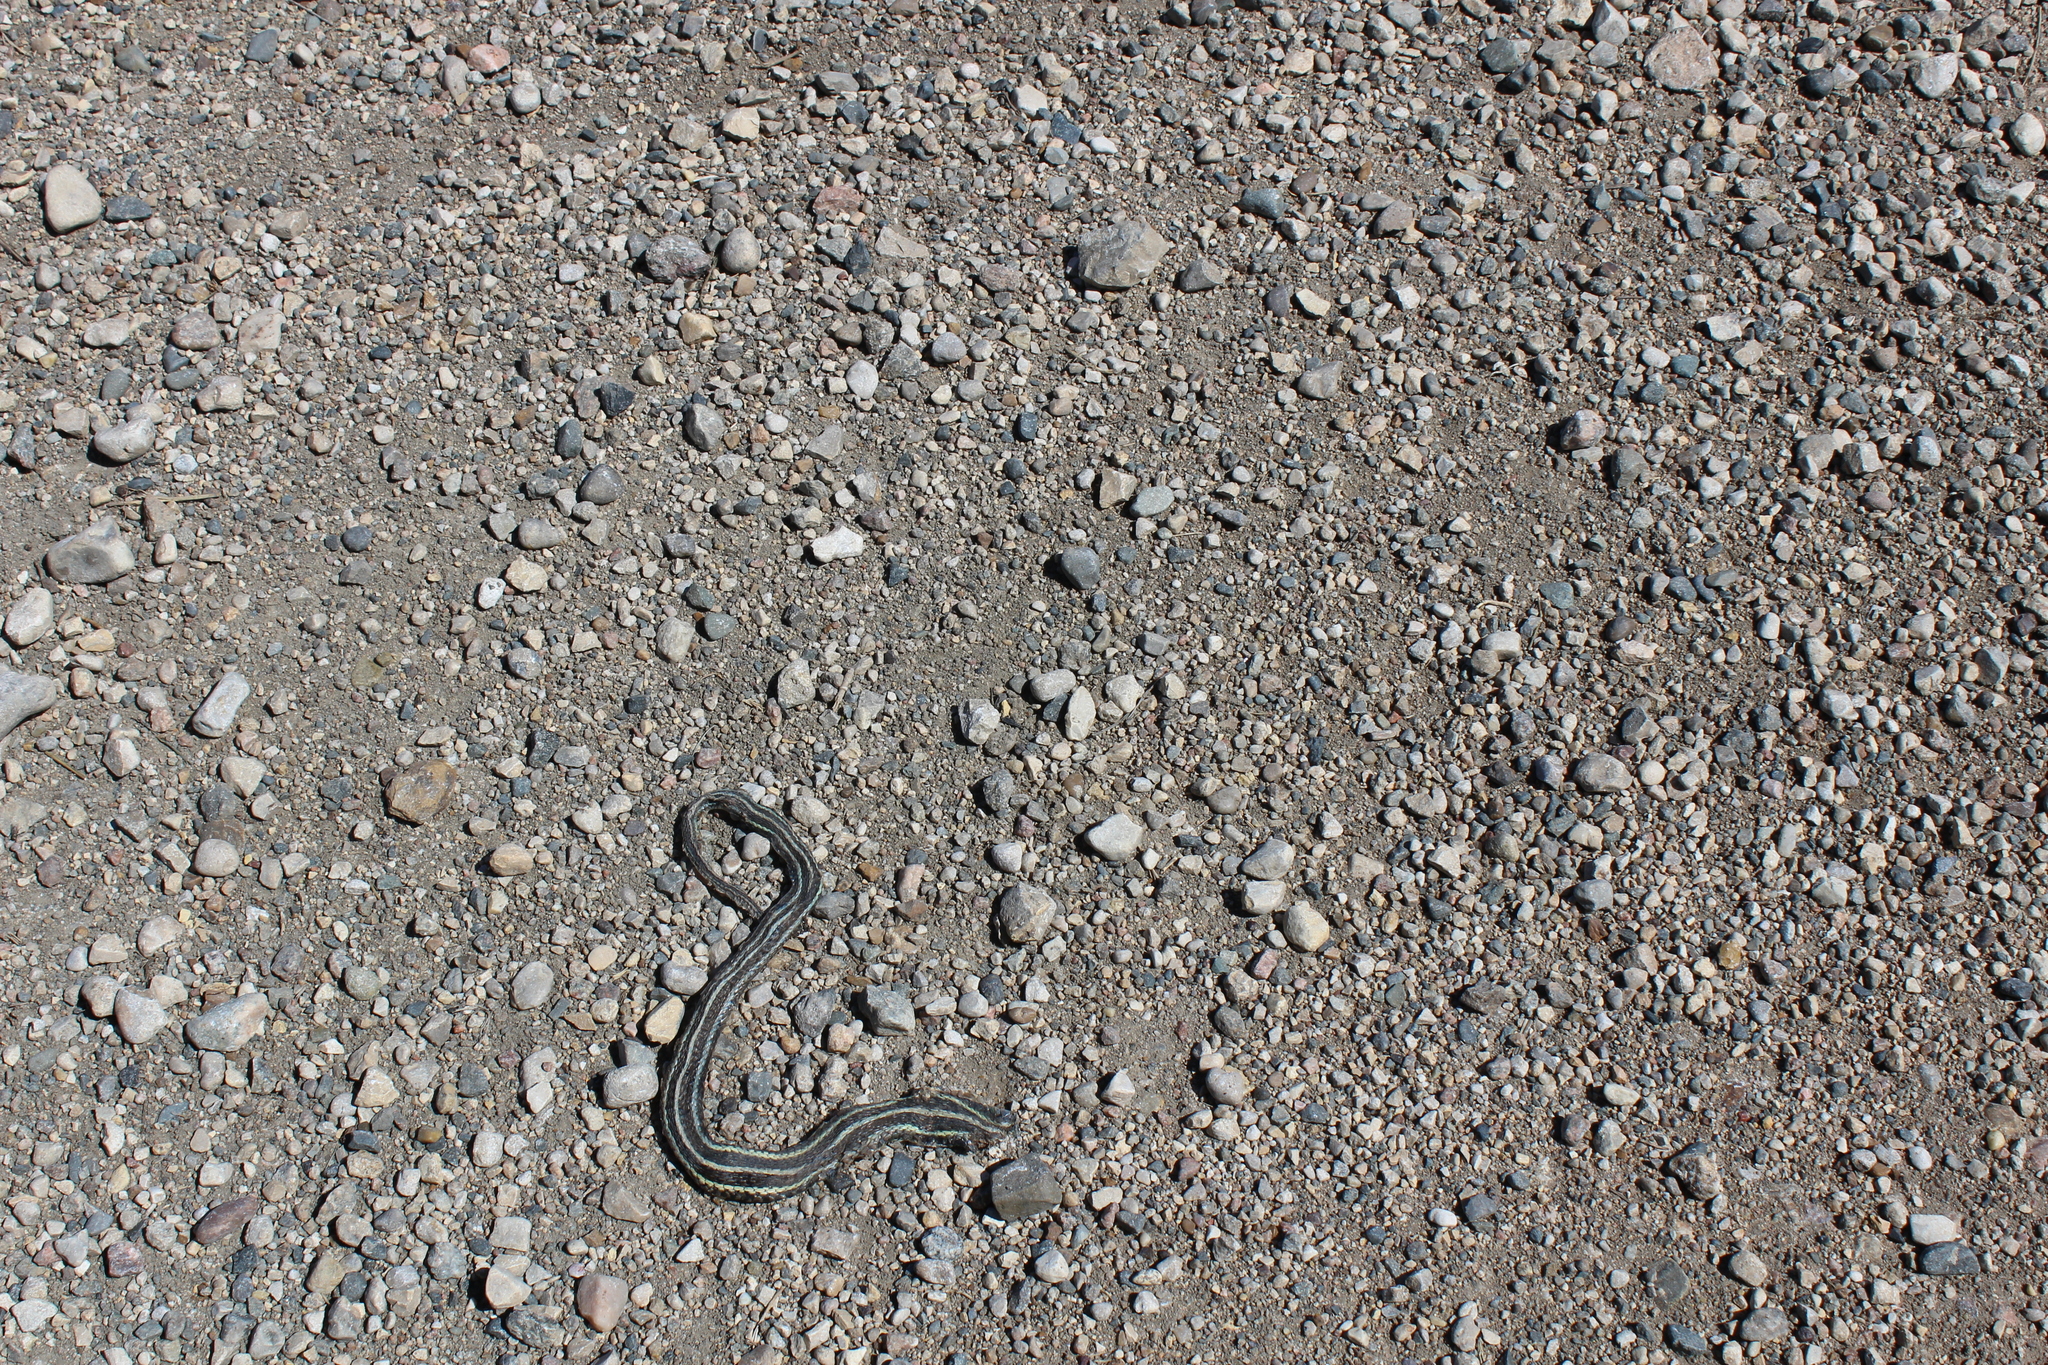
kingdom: Animalia
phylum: Chordata
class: Squamata
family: Colubridae
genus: Thamnophis
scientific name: Thamnophis radix
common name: Plains garter snake
